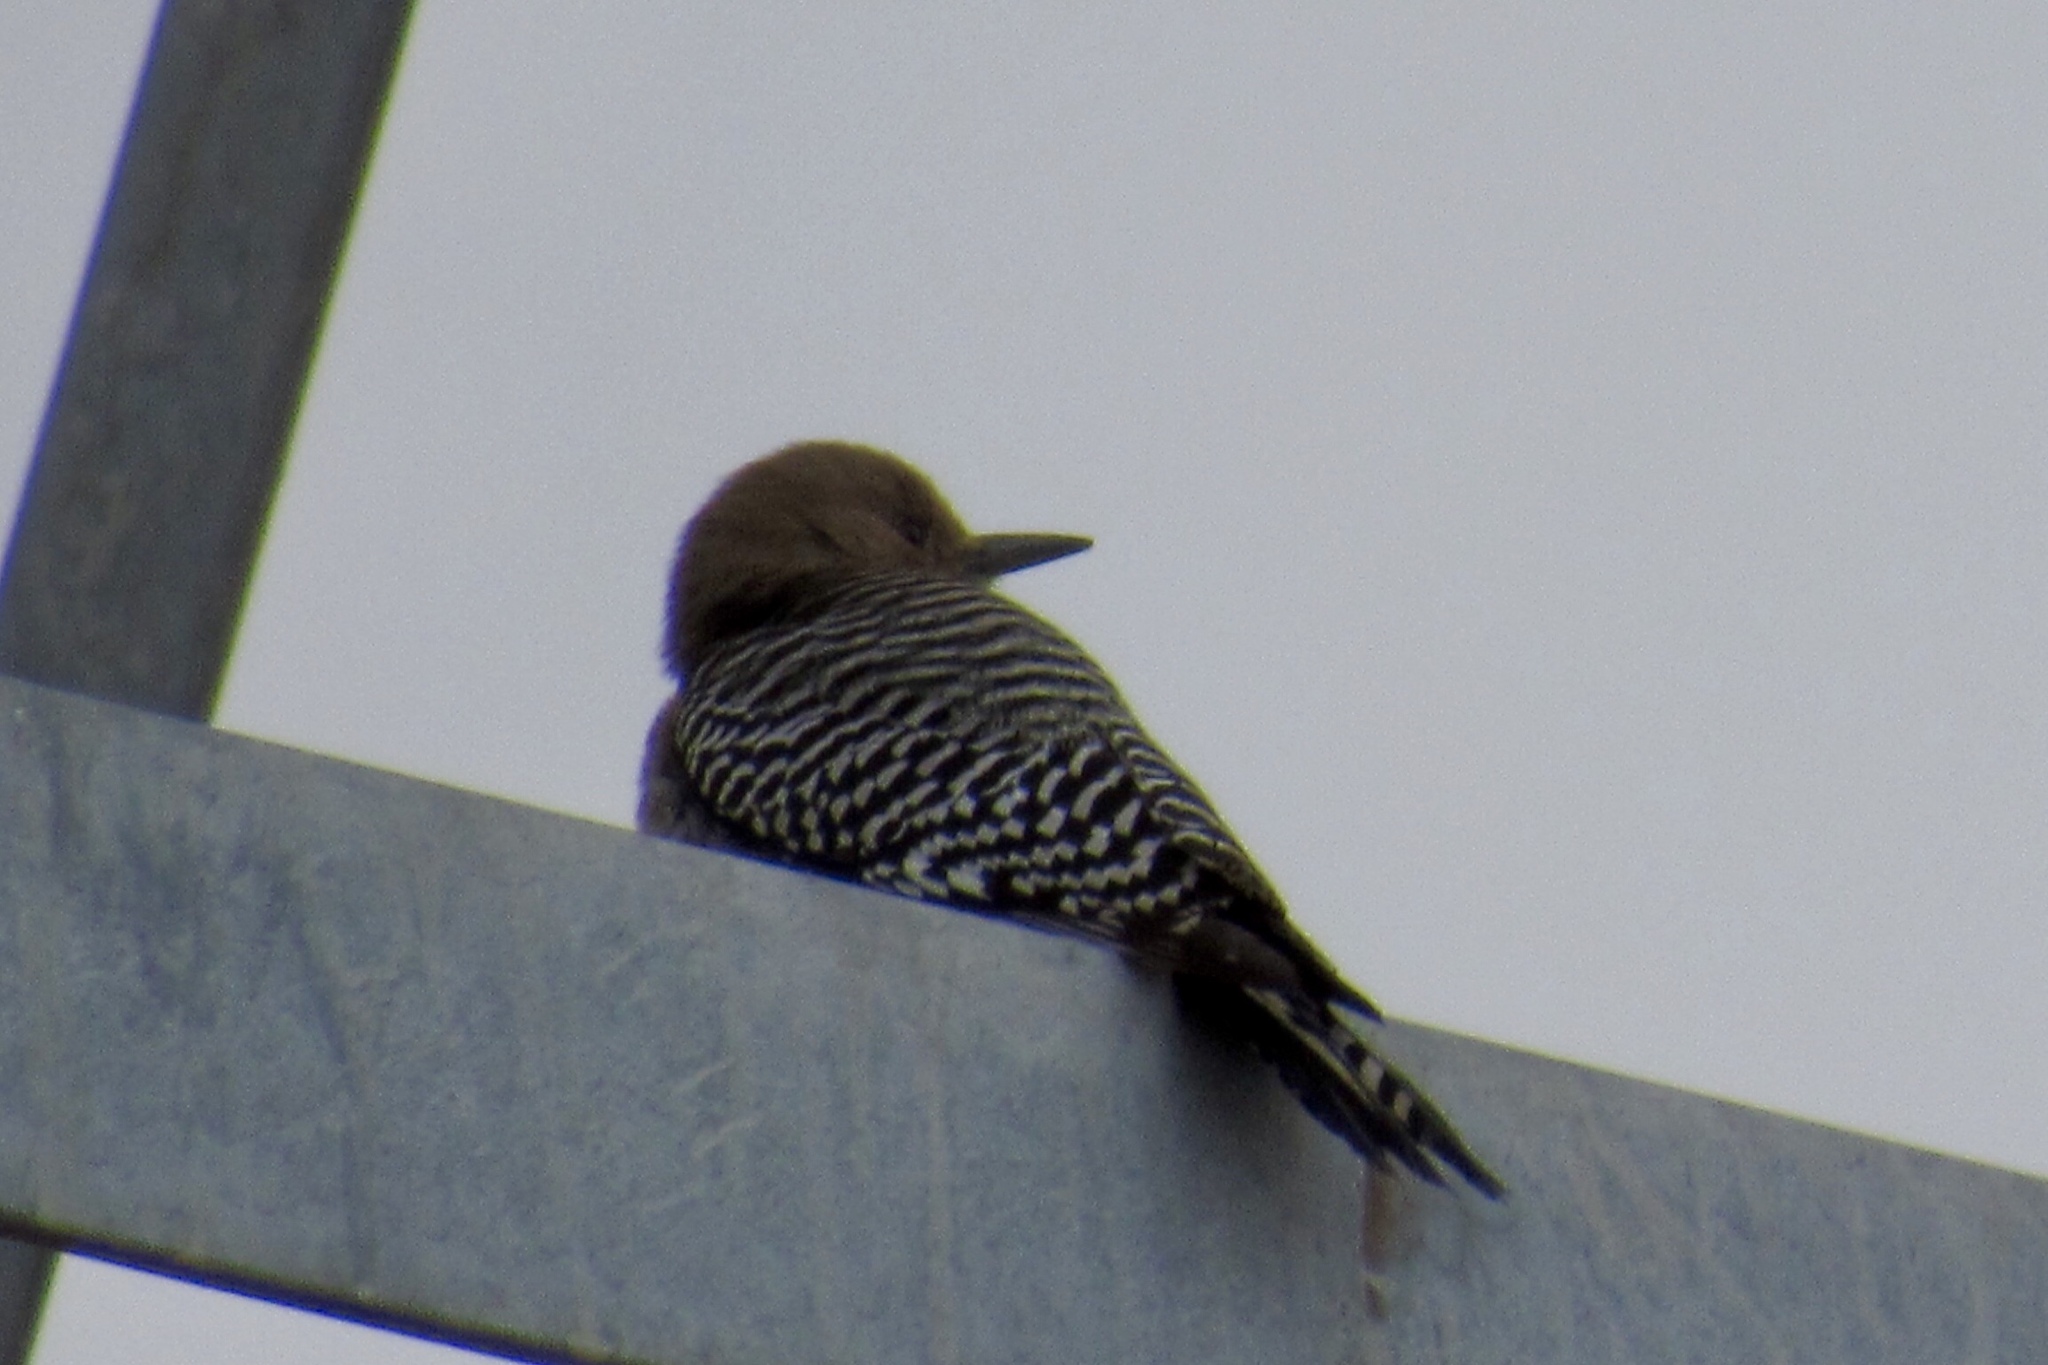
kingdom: Animalia
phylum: Chordata
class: Aves
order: Piciformes
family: Picidae
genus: Melanerpes
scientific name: Melanerpes uropygialis
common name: Gila woodpecker
